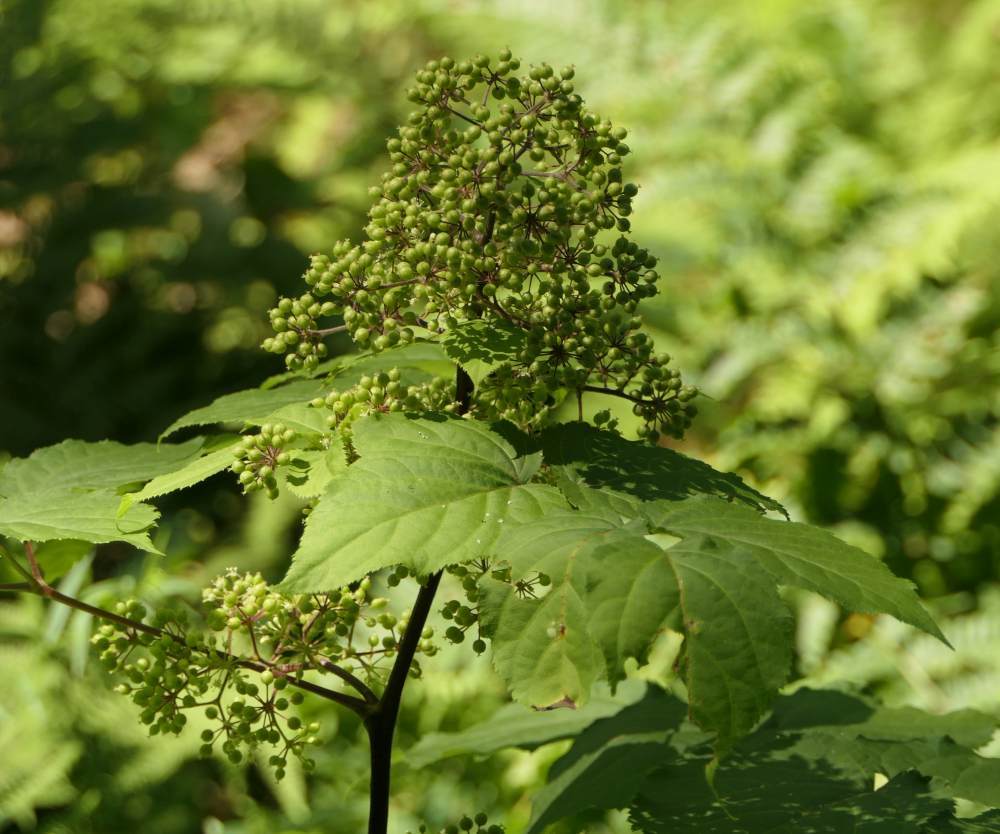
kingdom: Plantae
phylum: Tracheophyta
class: Magnoliopsida
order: Apiales
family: Araliaceae
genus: Aralia
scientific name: Aralia racemosa
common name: American-spikenard
